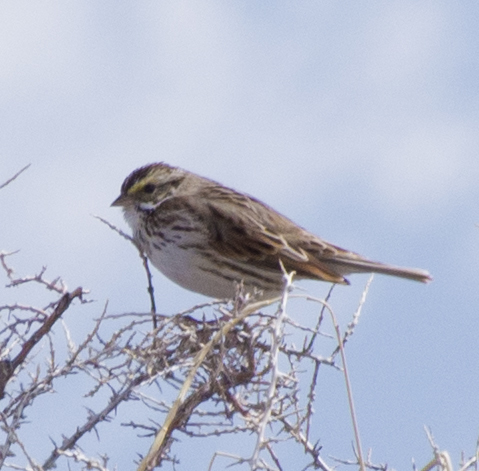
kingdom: Animalia
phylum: Chordata
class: Aves
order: Passeriformes
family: Passerellidae
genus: Passerculus
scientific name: Passerculus sandwichensis
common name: Savannah sparrow
